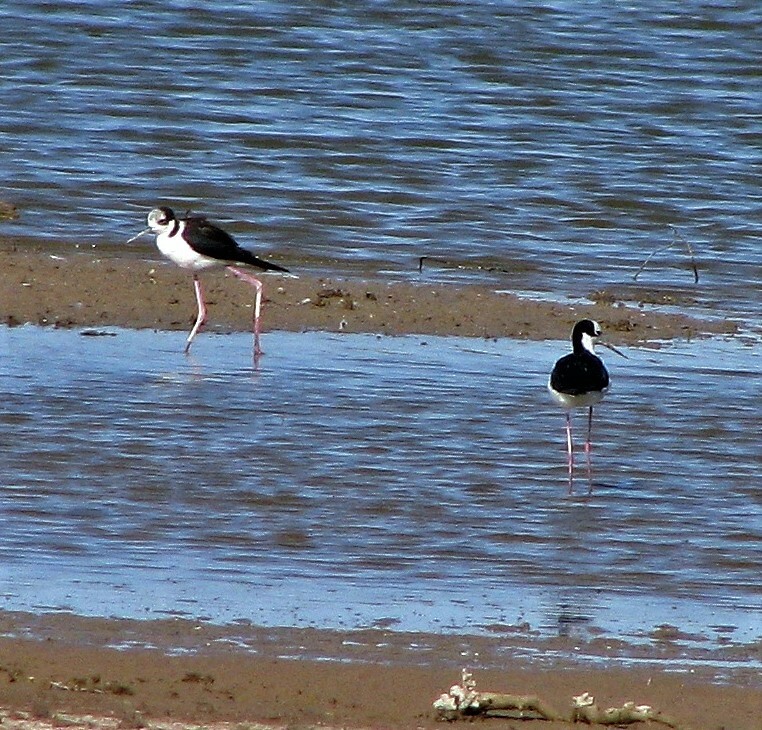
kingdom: Animalia
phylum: Chordata
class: Aves
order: Charadriiformes
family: Recurvirostridae
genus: Himantopus
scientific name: Himantopus mexicanus
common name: Black-necked stilt
